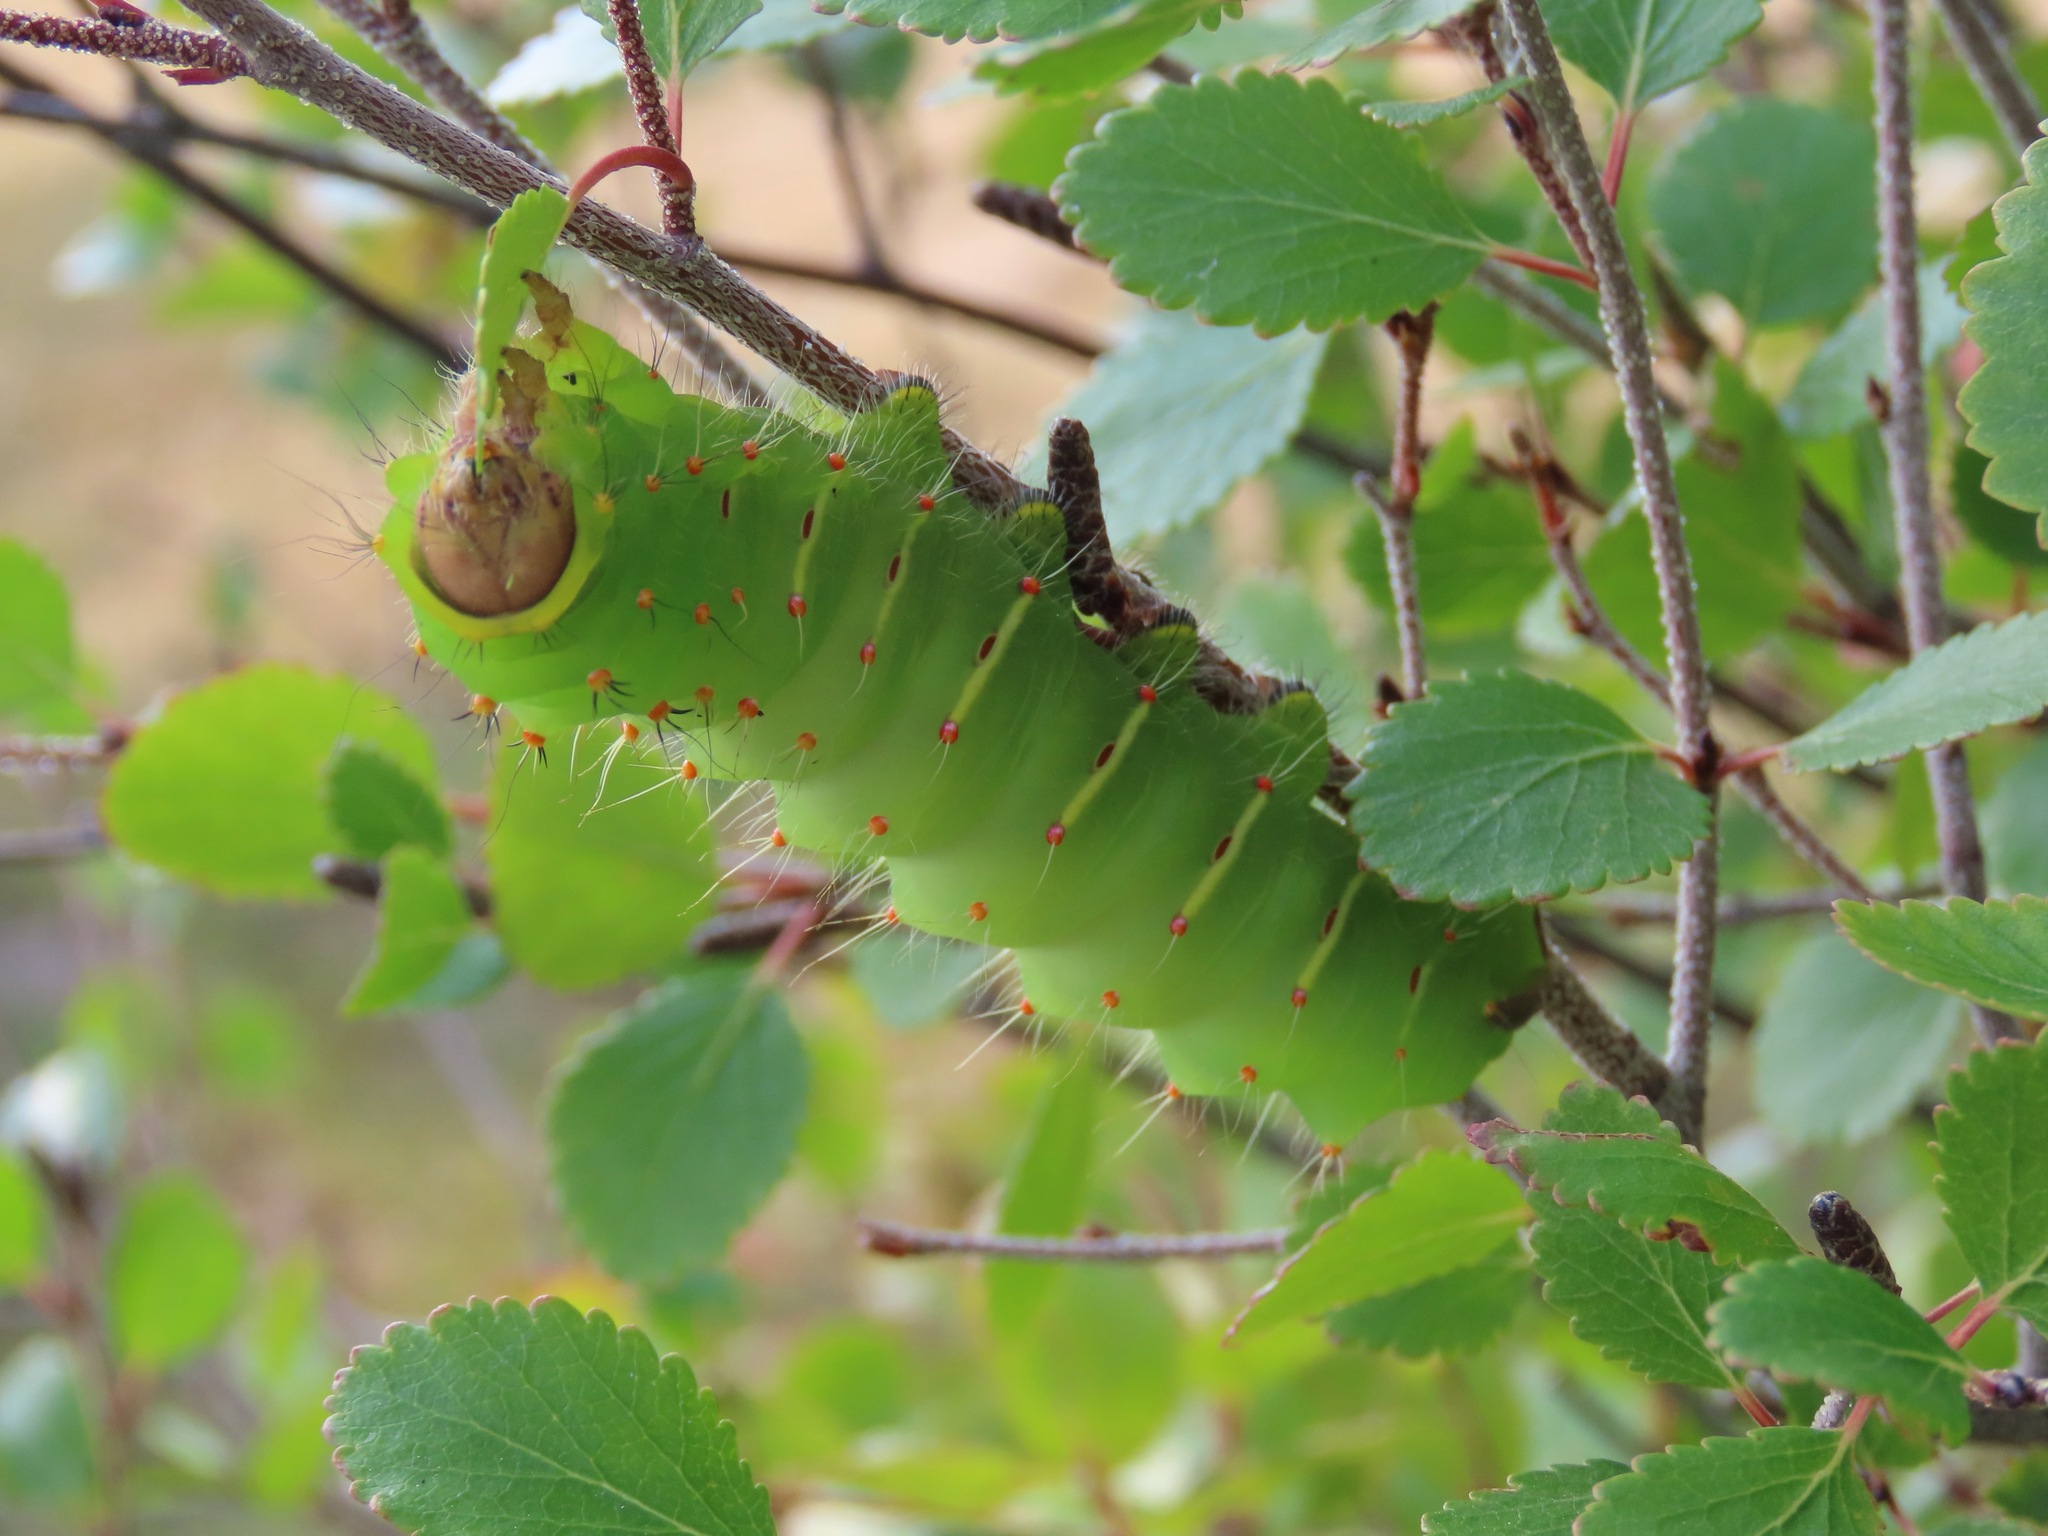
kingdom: Animalia
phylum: Arthropoda
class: Insecta
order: Lepidoptera
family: Saturniidae
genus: Antheraea
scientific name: Antheraea polyphemus
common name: Polyphemus moth
